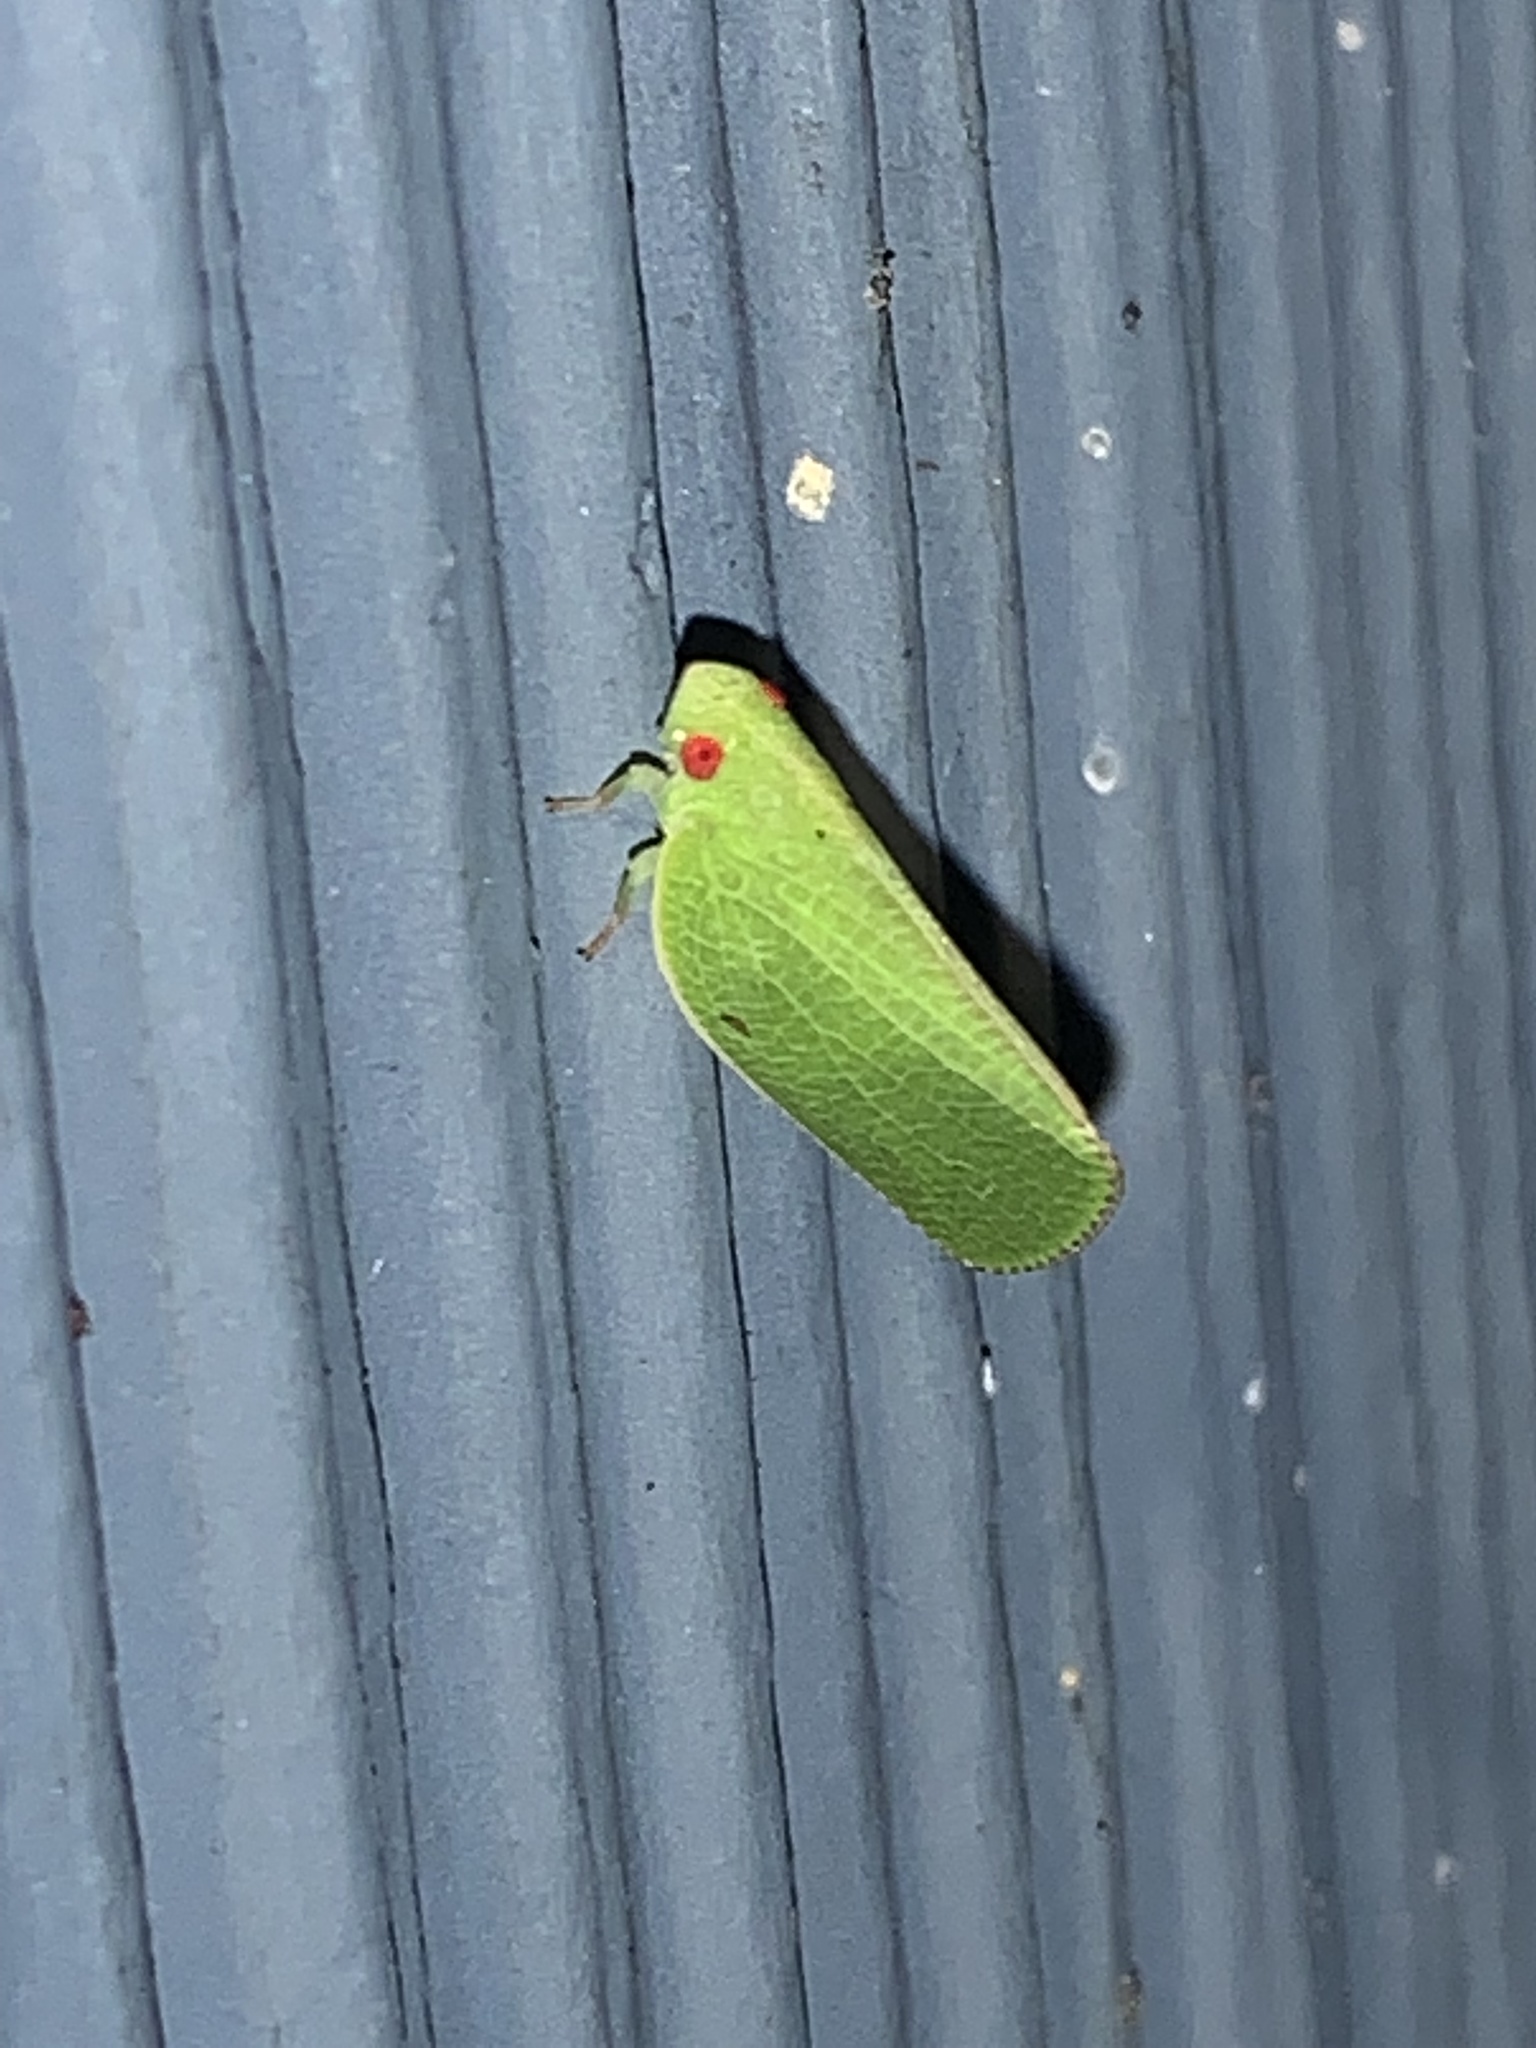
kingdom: Animalia
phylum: Arthropoda
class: Insecta
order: Hemiptera
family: Acanaloniidae
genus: Acanalonia
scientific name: Acanalonia conica
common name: Green cone-headed planthopper
